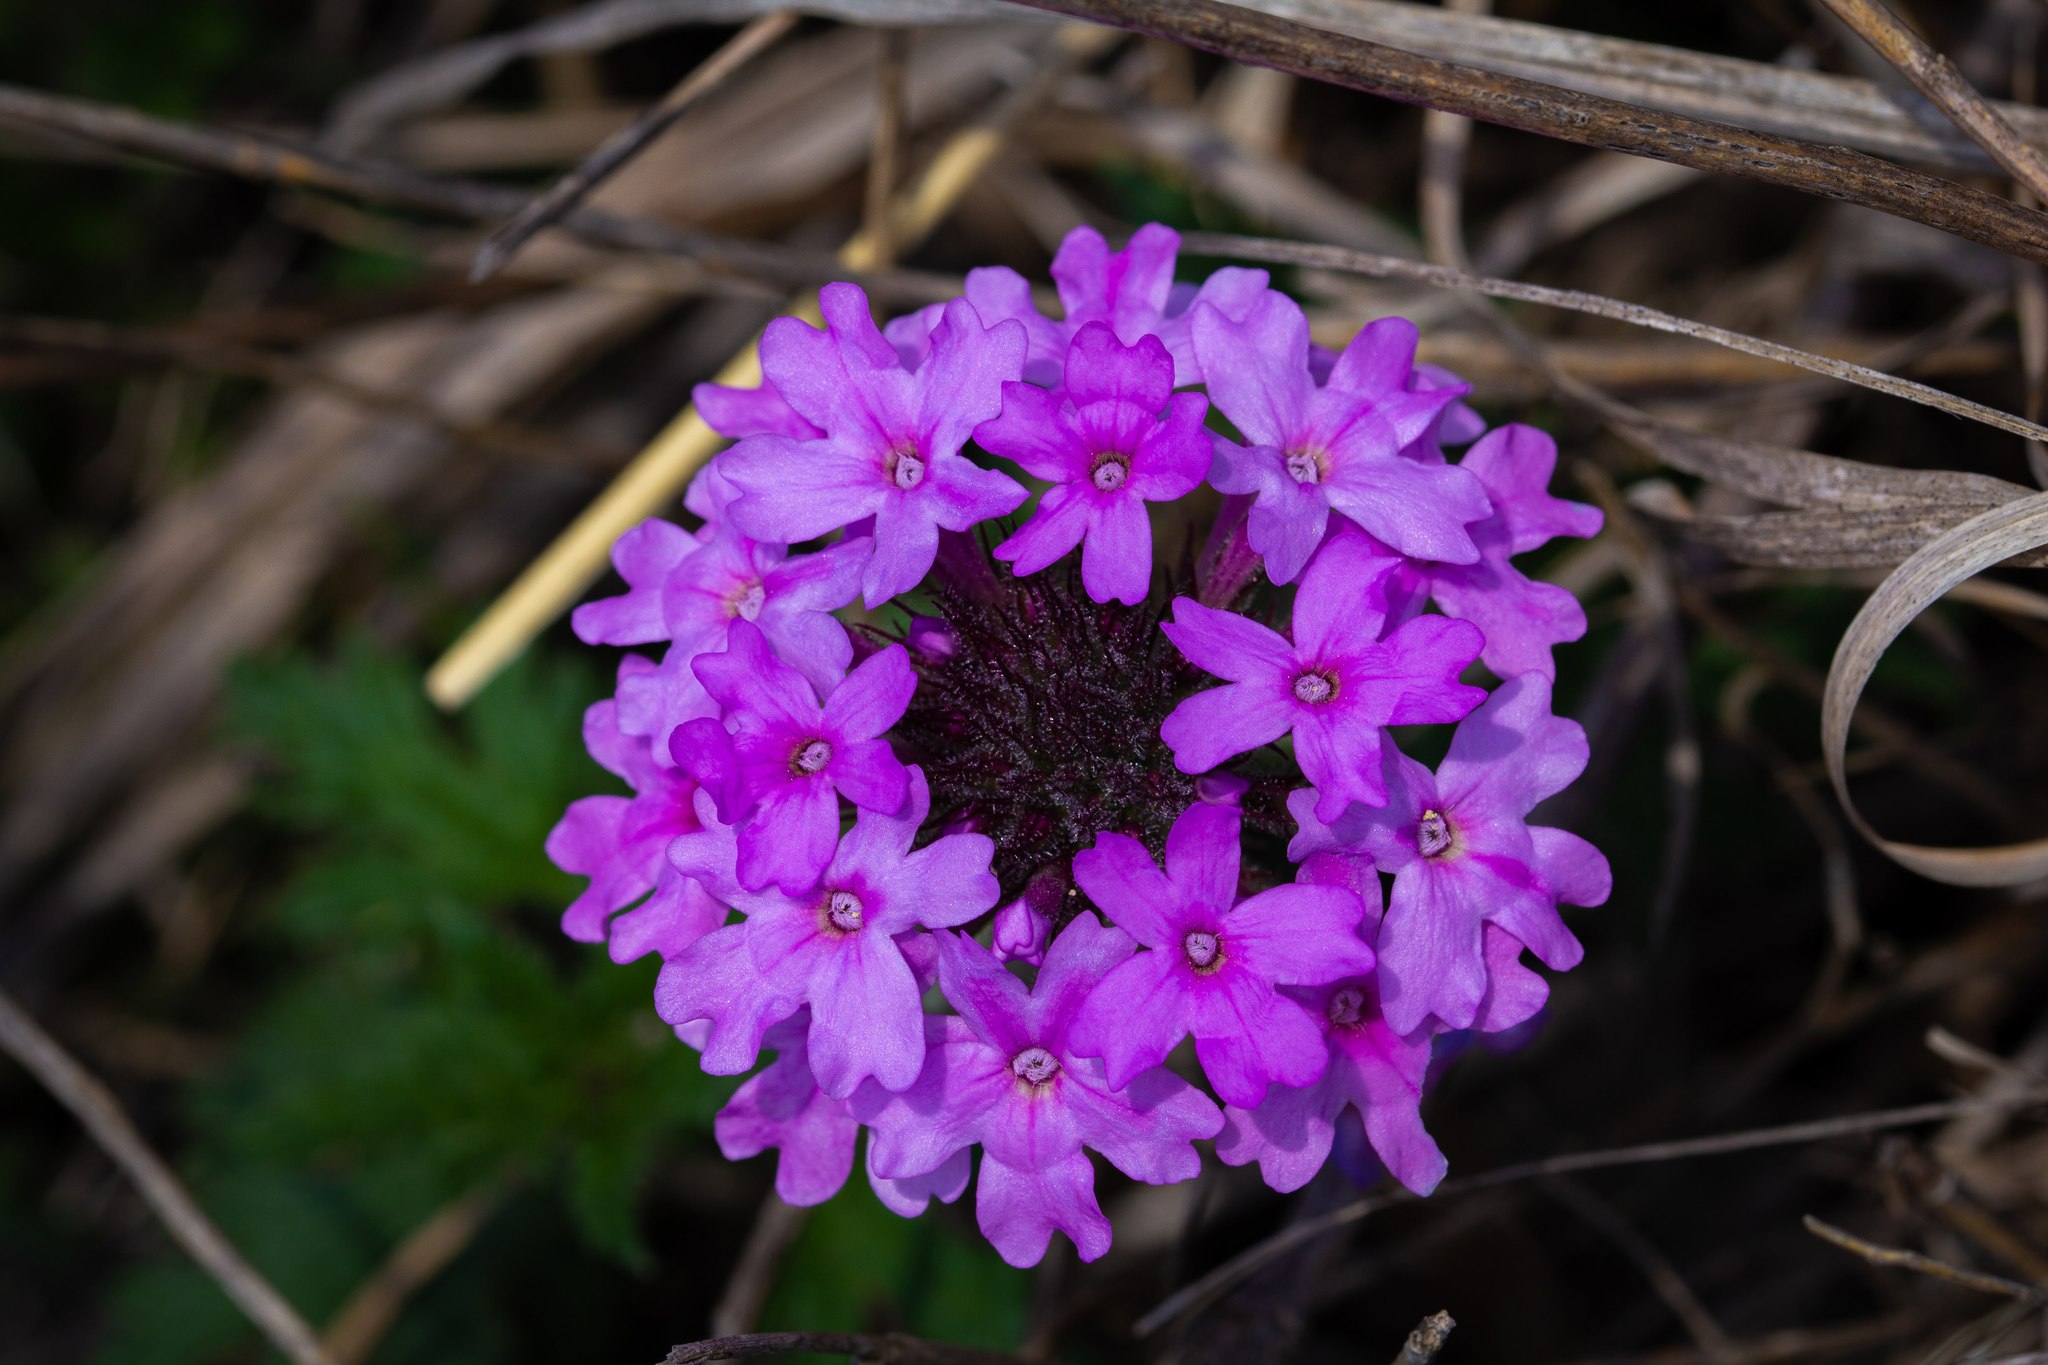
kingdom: Plantae
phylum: Tracheophyta
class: Magnoliopsida
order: Lamiales
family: Verbenaceae
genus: Verbena
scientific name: Verbena canadensis
